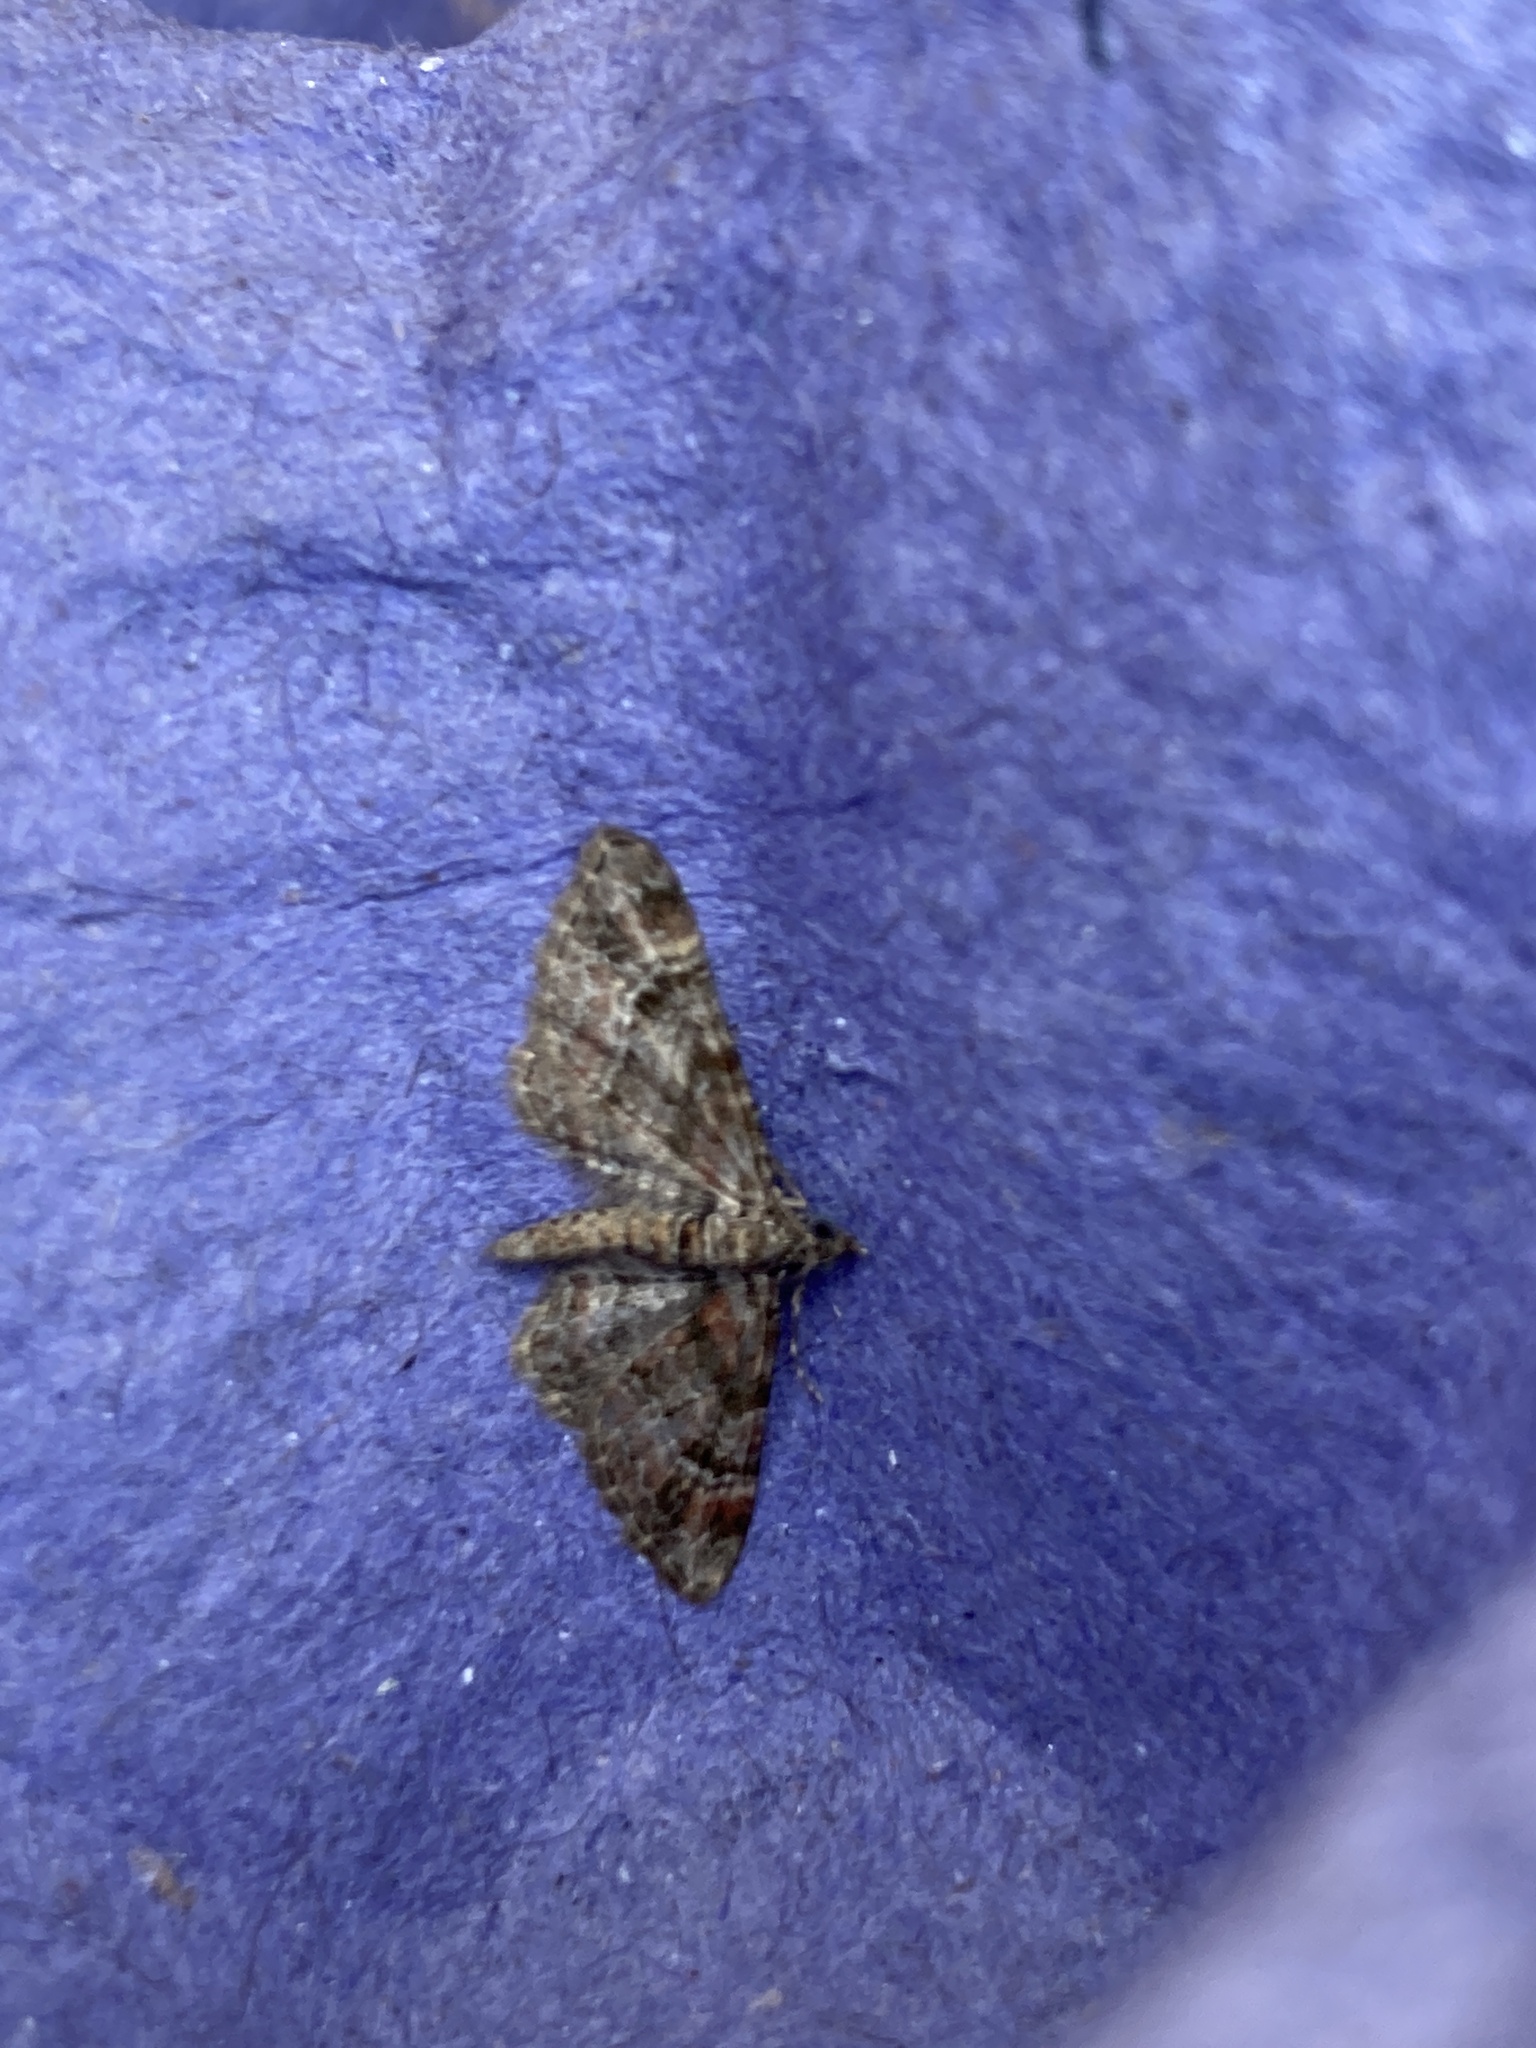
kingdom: Animalia
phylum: Arthropoda
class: Insecta
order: Lepidoptera
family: Geometridae
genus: Gymnoscelis
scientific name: Gymnoscelis rufifasciata
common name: Double-striped pug
